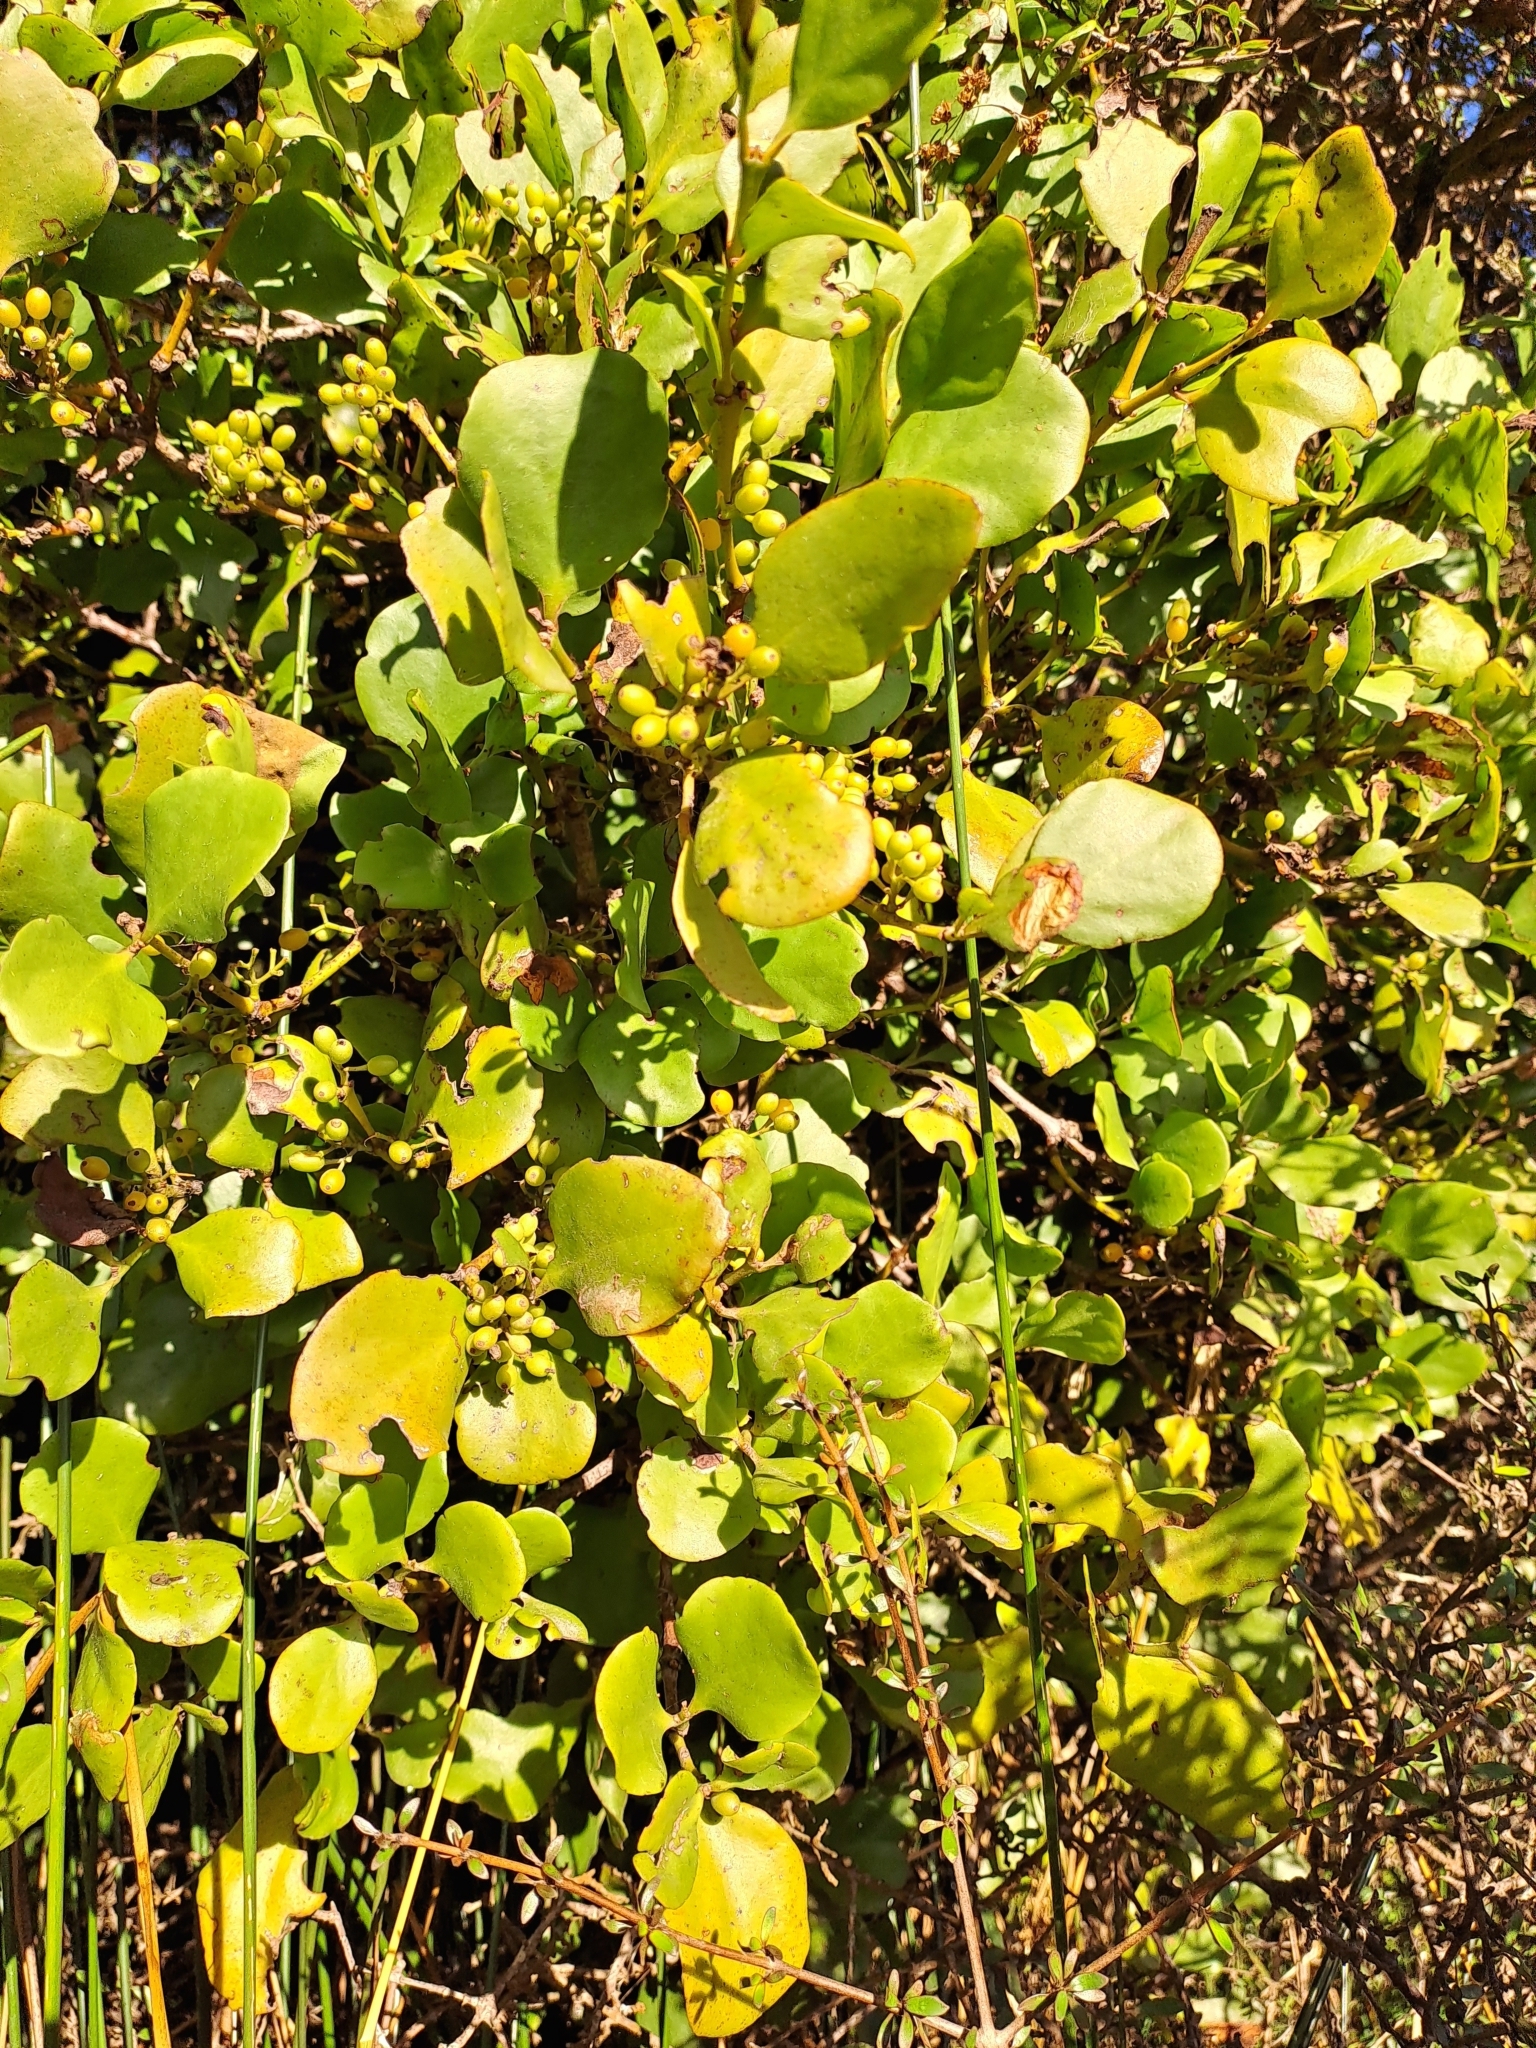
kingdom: Plantae
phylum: Tracheophyta
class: Magnoliopsida
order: Santalales
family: Loranthaceae
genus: Ileostylus
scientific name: Ileostylus micranthus
